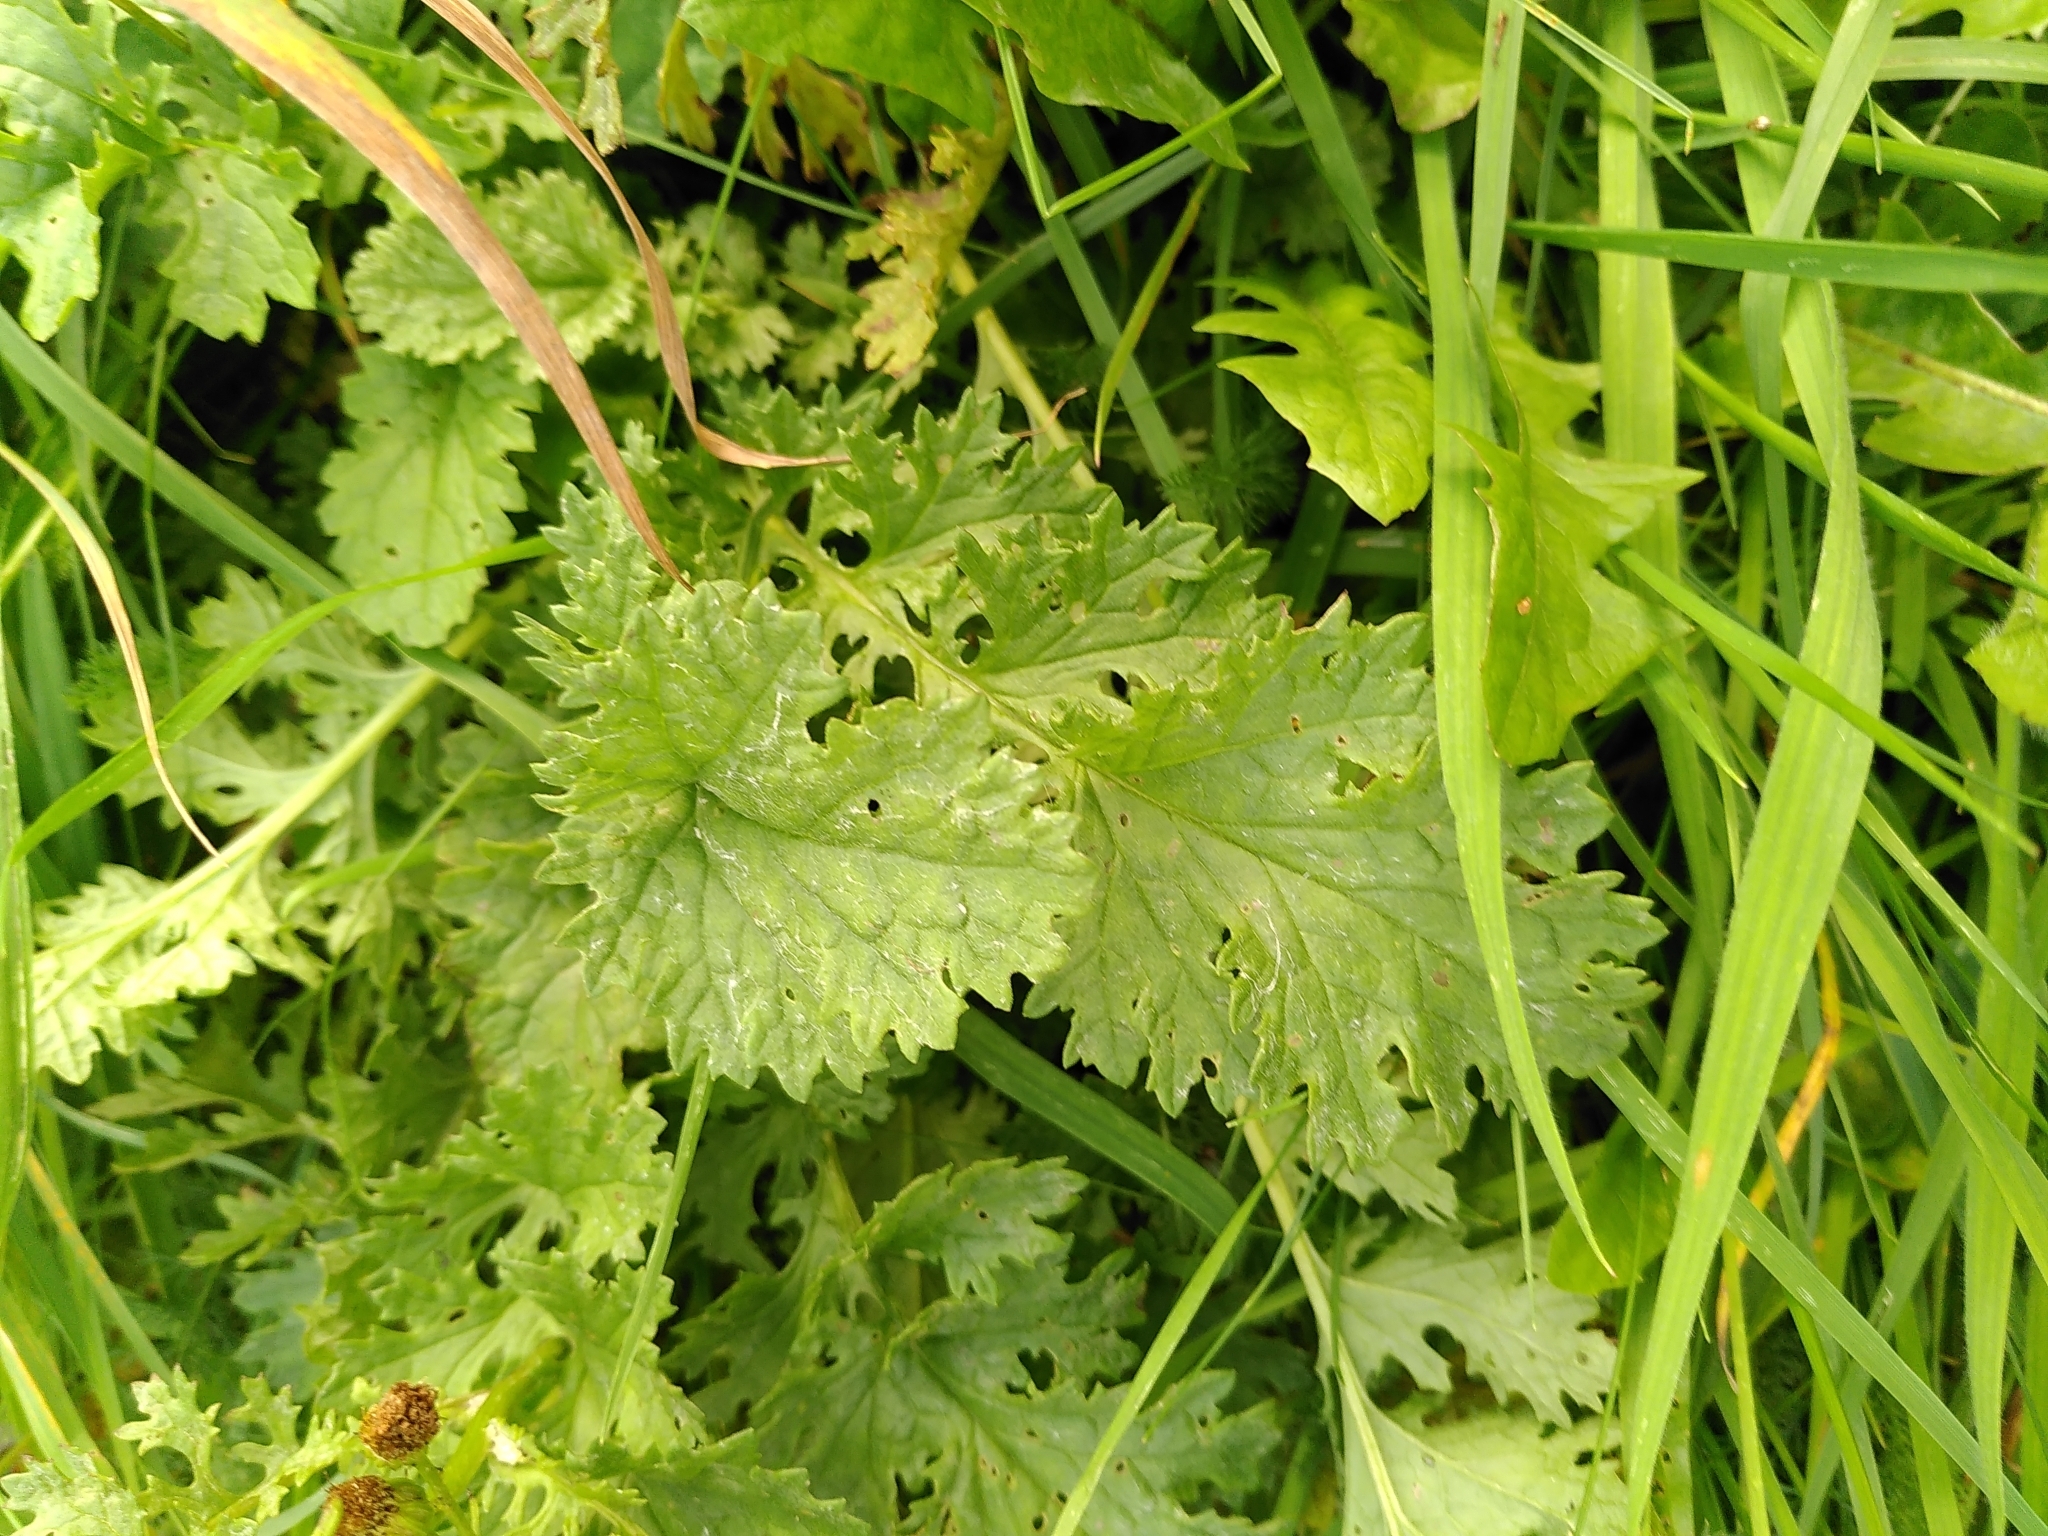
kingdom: Plantae
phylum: Tracheophyta
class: Magnoliopsida
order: Asterales
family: Asteraceae
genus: Jacobaea
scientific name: Jacobaea vulgaris
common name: Stinking willie
